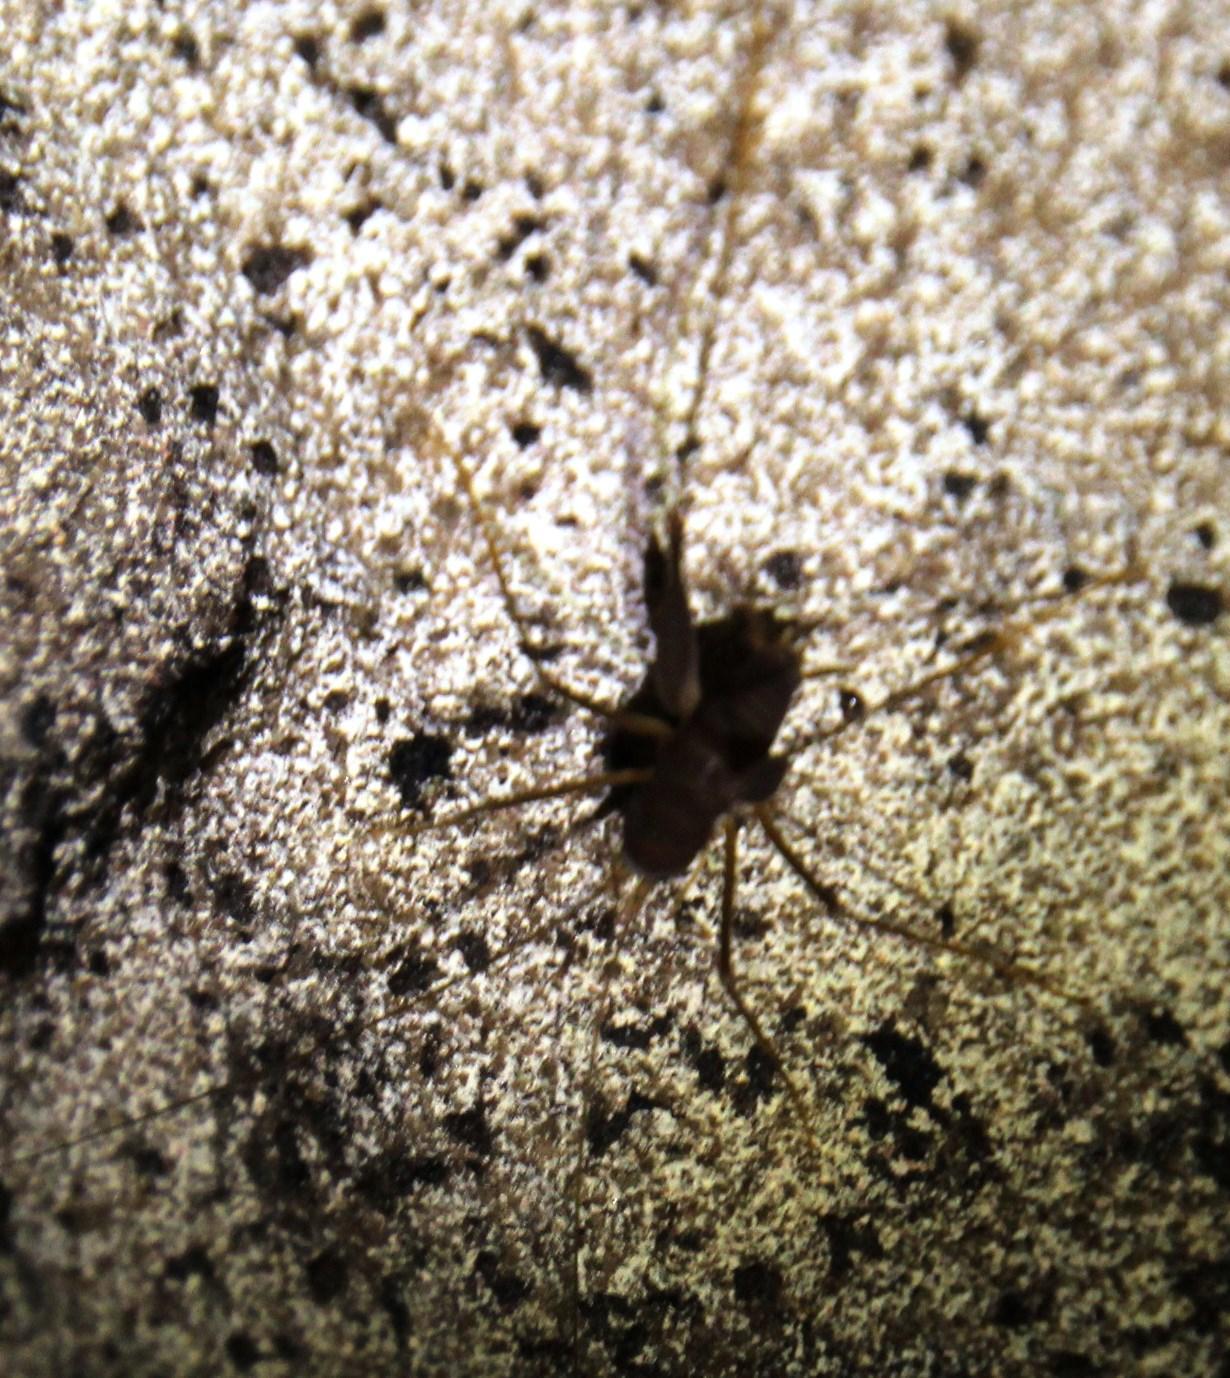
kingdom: Animalia
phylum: Arthropoda
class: Insecta
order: Orthoptera
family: Rhaphidophoridae
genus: Spelaeiacris
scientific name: Spelaeiacris tabulae
